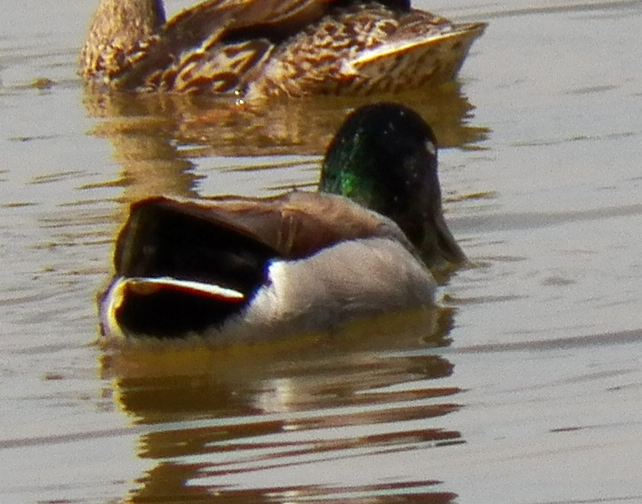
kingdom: Animalia
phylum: Chordata
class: Aves
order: Anseriformes
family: Anatidae
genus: Anas
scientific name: Anas platyrhynchos
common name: Mallard
